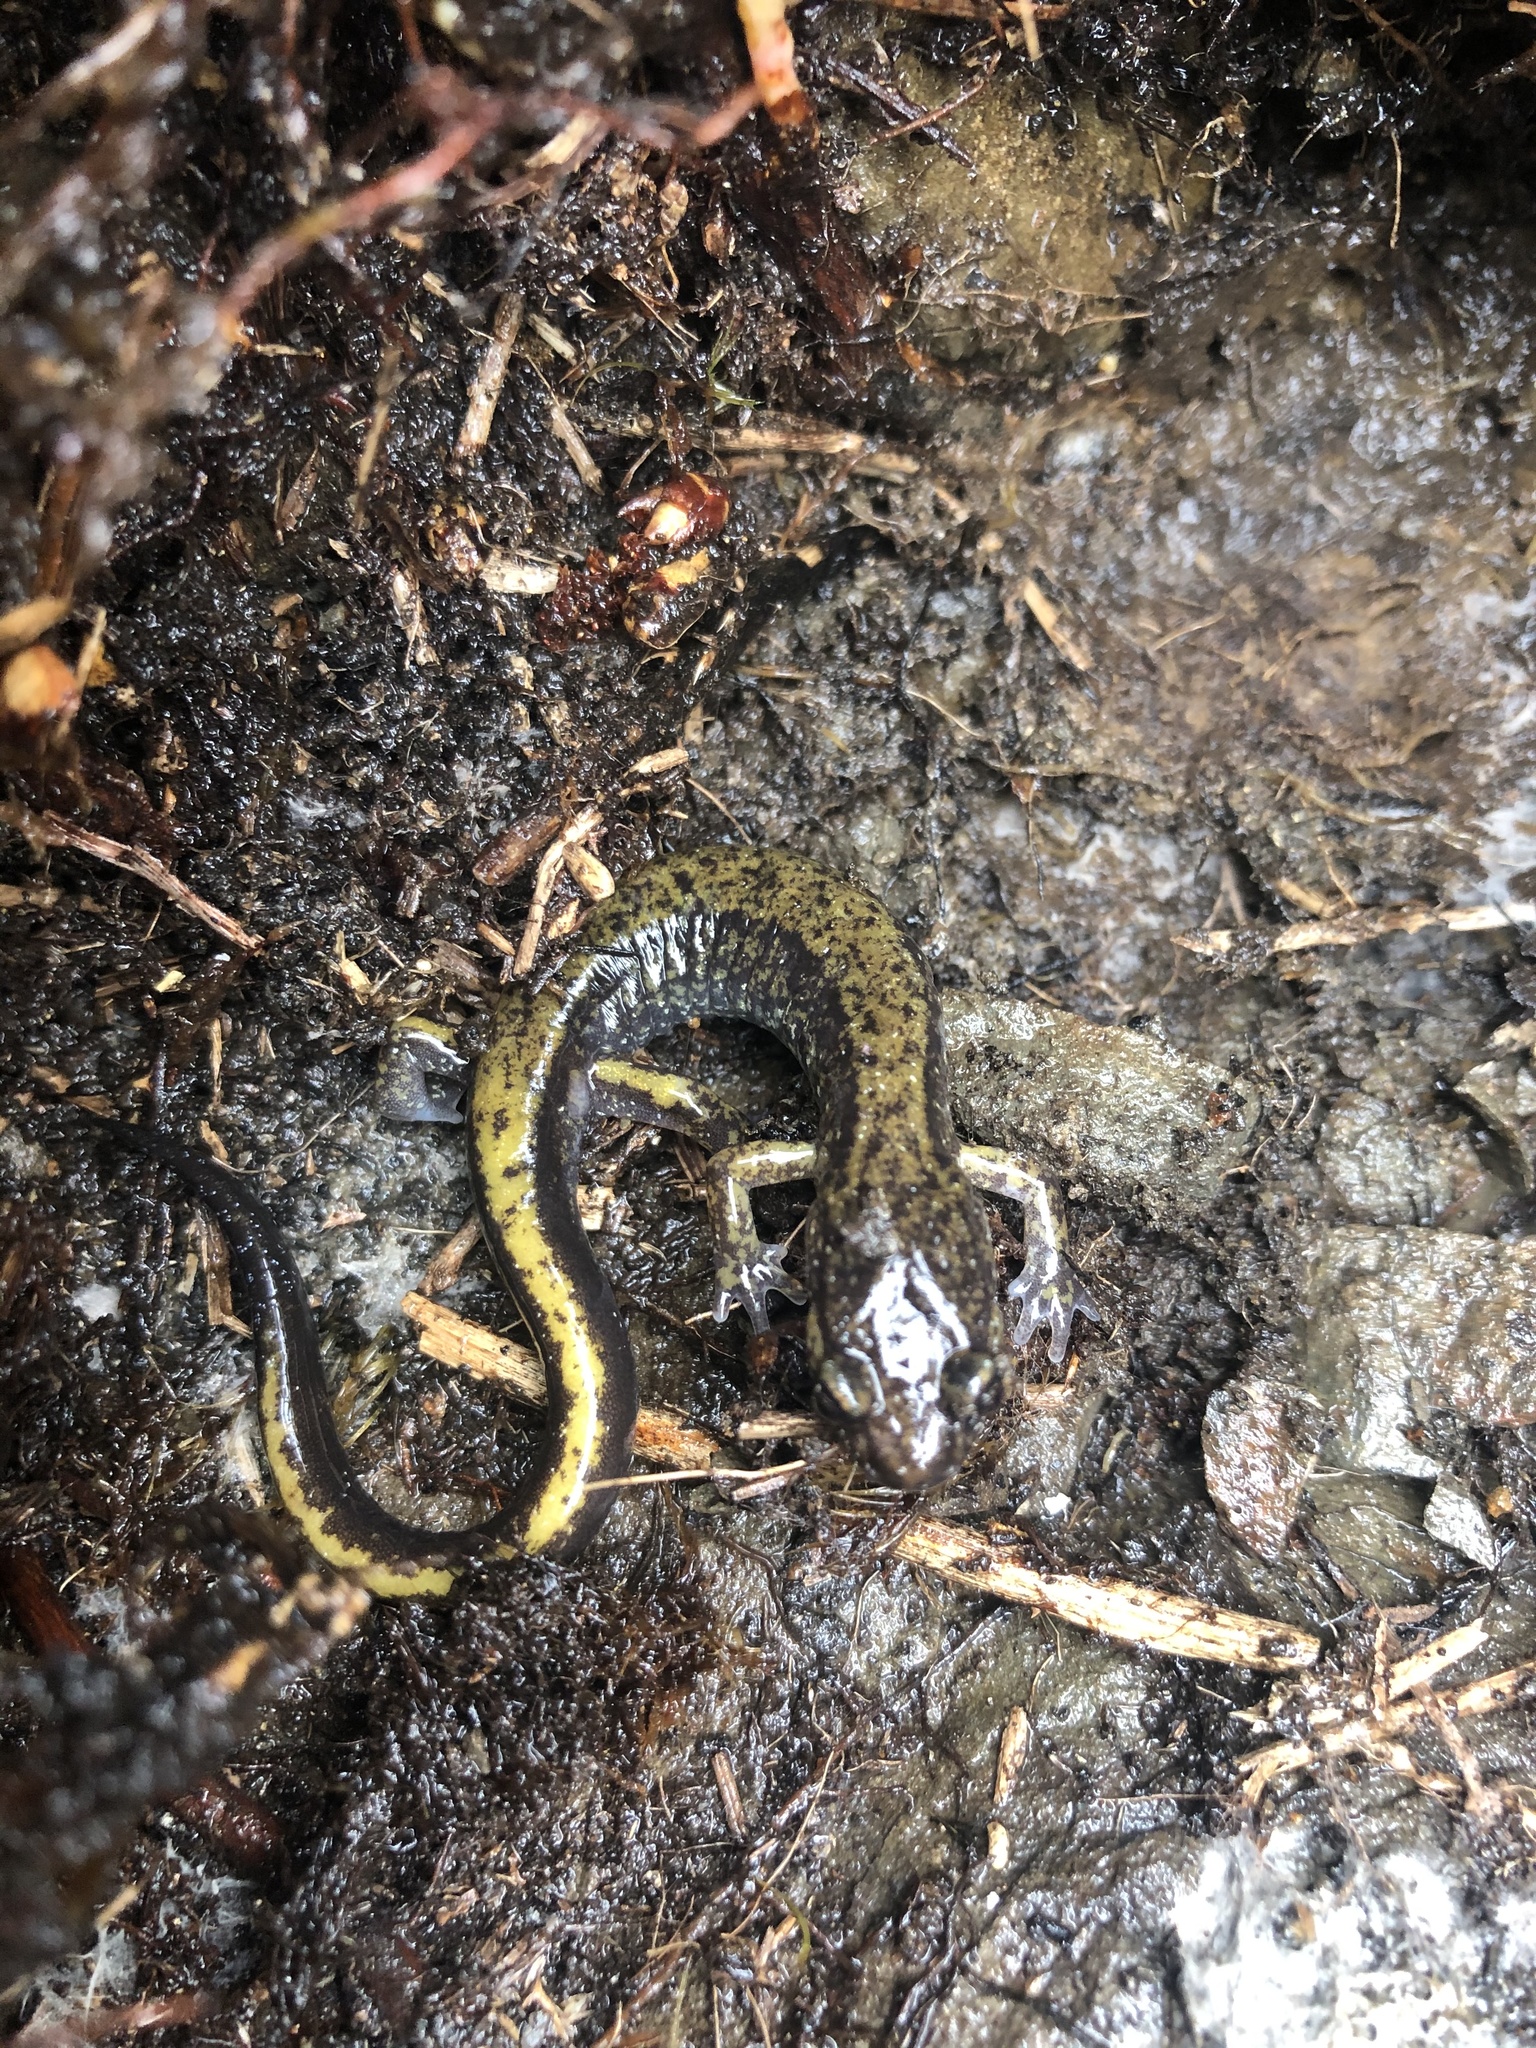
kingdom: Animalia
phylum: Chordata
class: Amphibia
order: Caudata
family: Plethodontidae
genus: Plethodon
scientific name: Plethodon dunni
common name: Dunn's salamander
